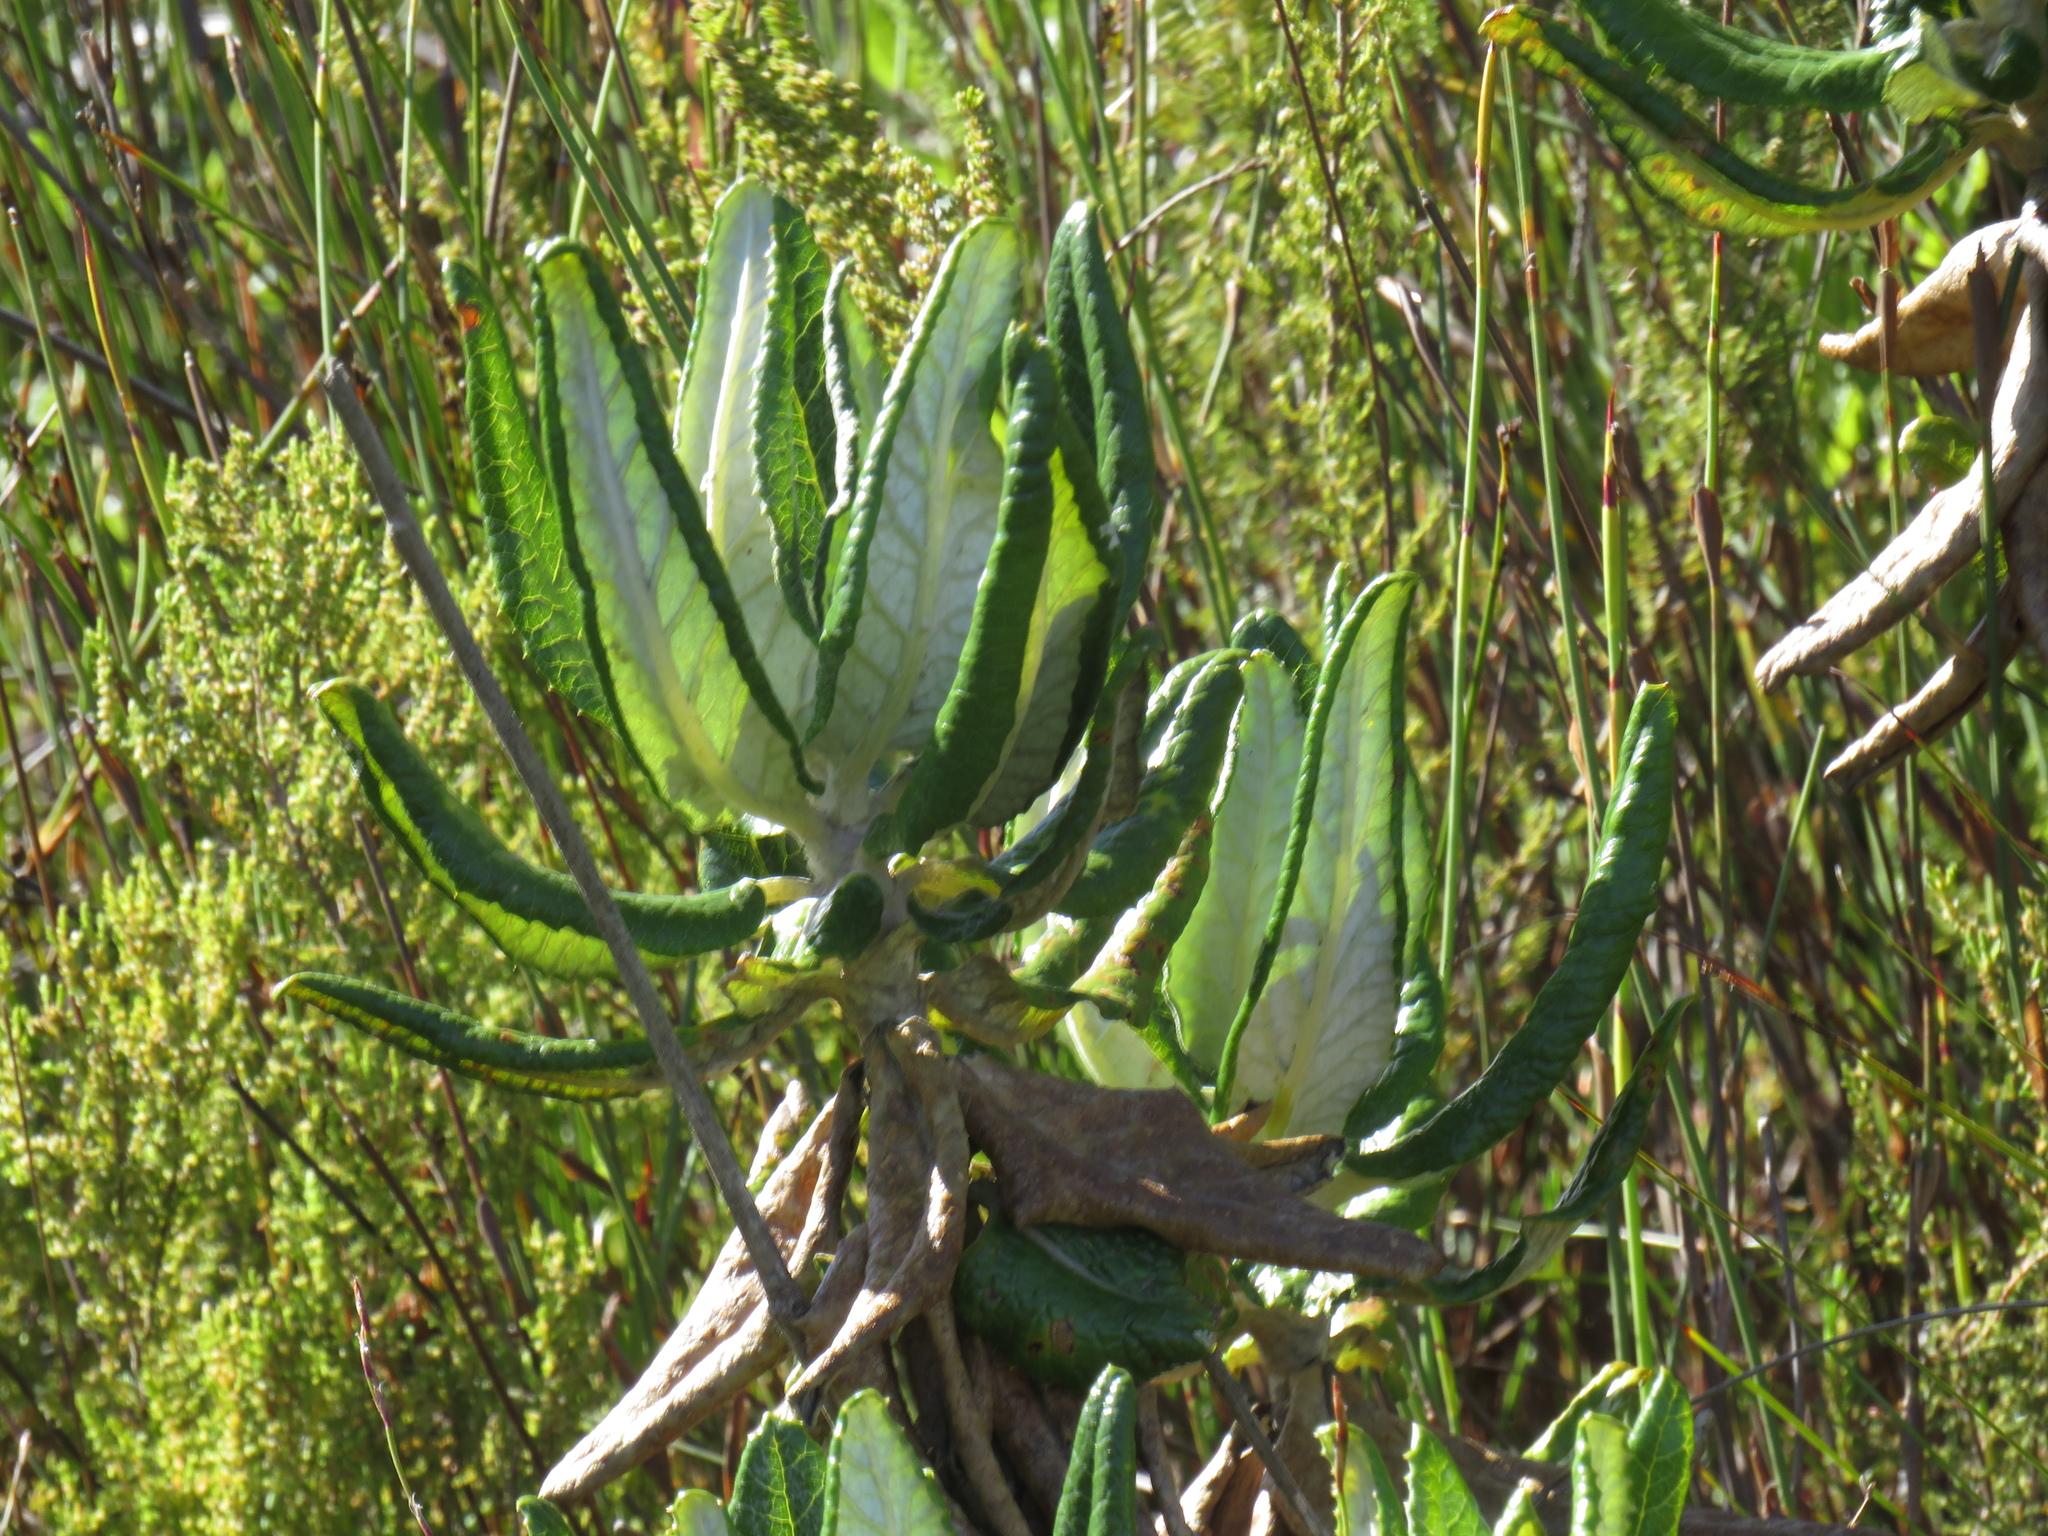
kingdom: Plantae
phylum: Tracheophyta
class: Magnoliopsida
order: Apiales
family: Apiaceae
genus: Hermas
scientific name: Hermas villosa
